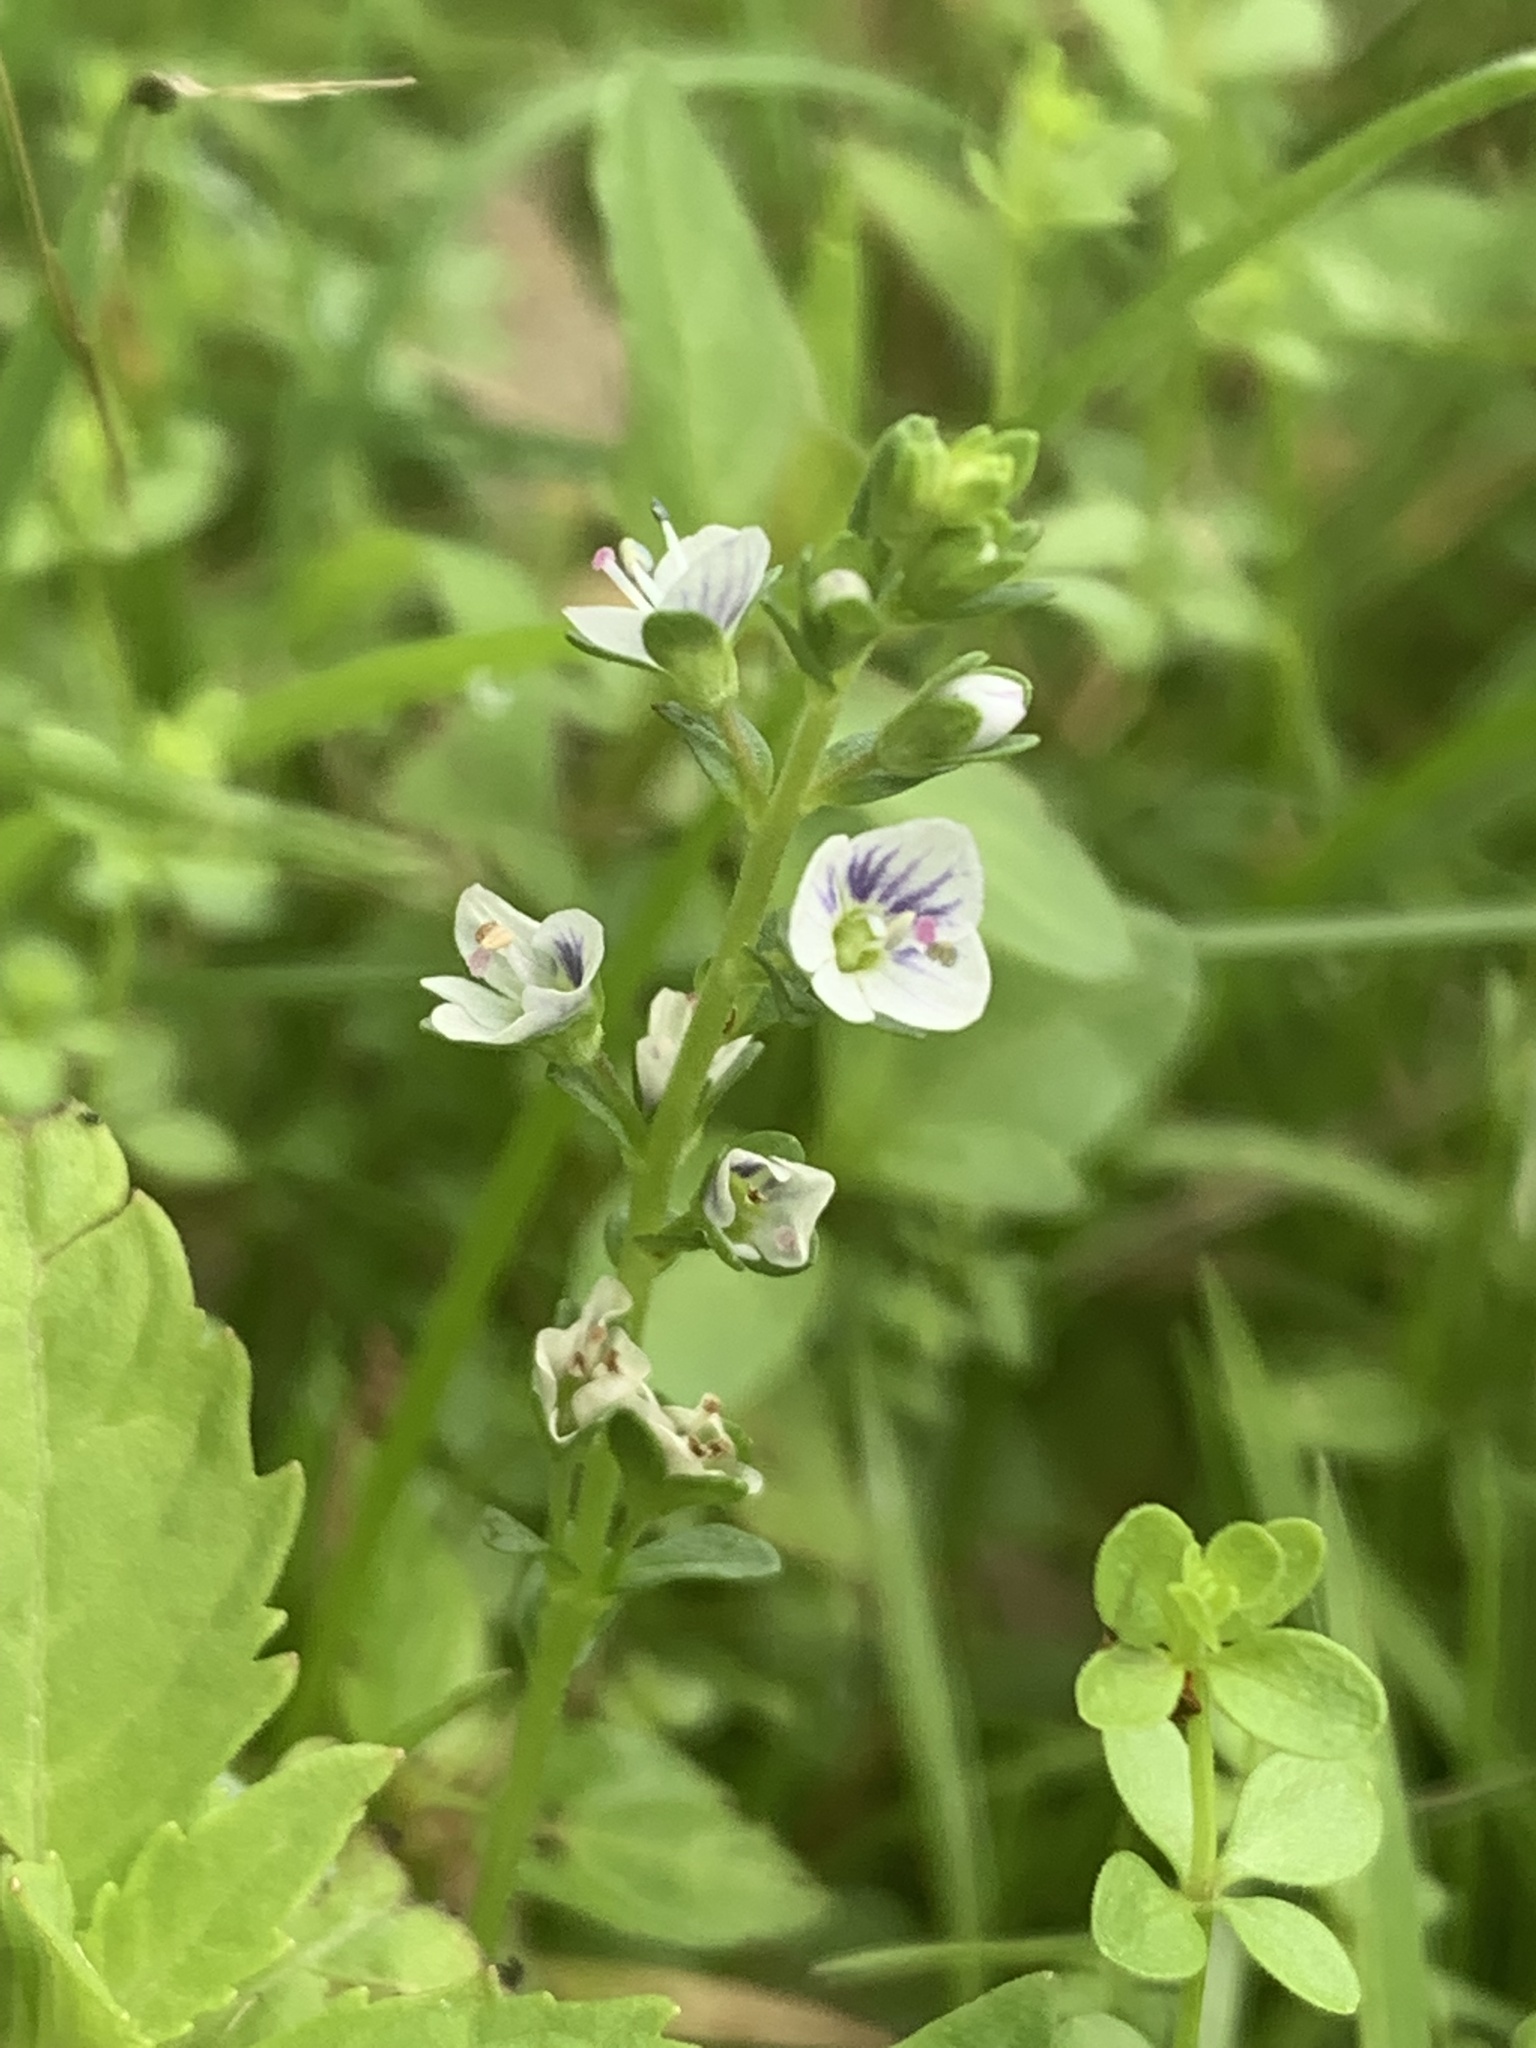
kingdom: Plantae
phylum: Tracheophyta
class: Magnoliopsida
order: Lamiales
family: Plantaginaceae
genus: Veronica
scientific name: Veronica serpyllifolia
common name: Thyme-leaved speedwell
